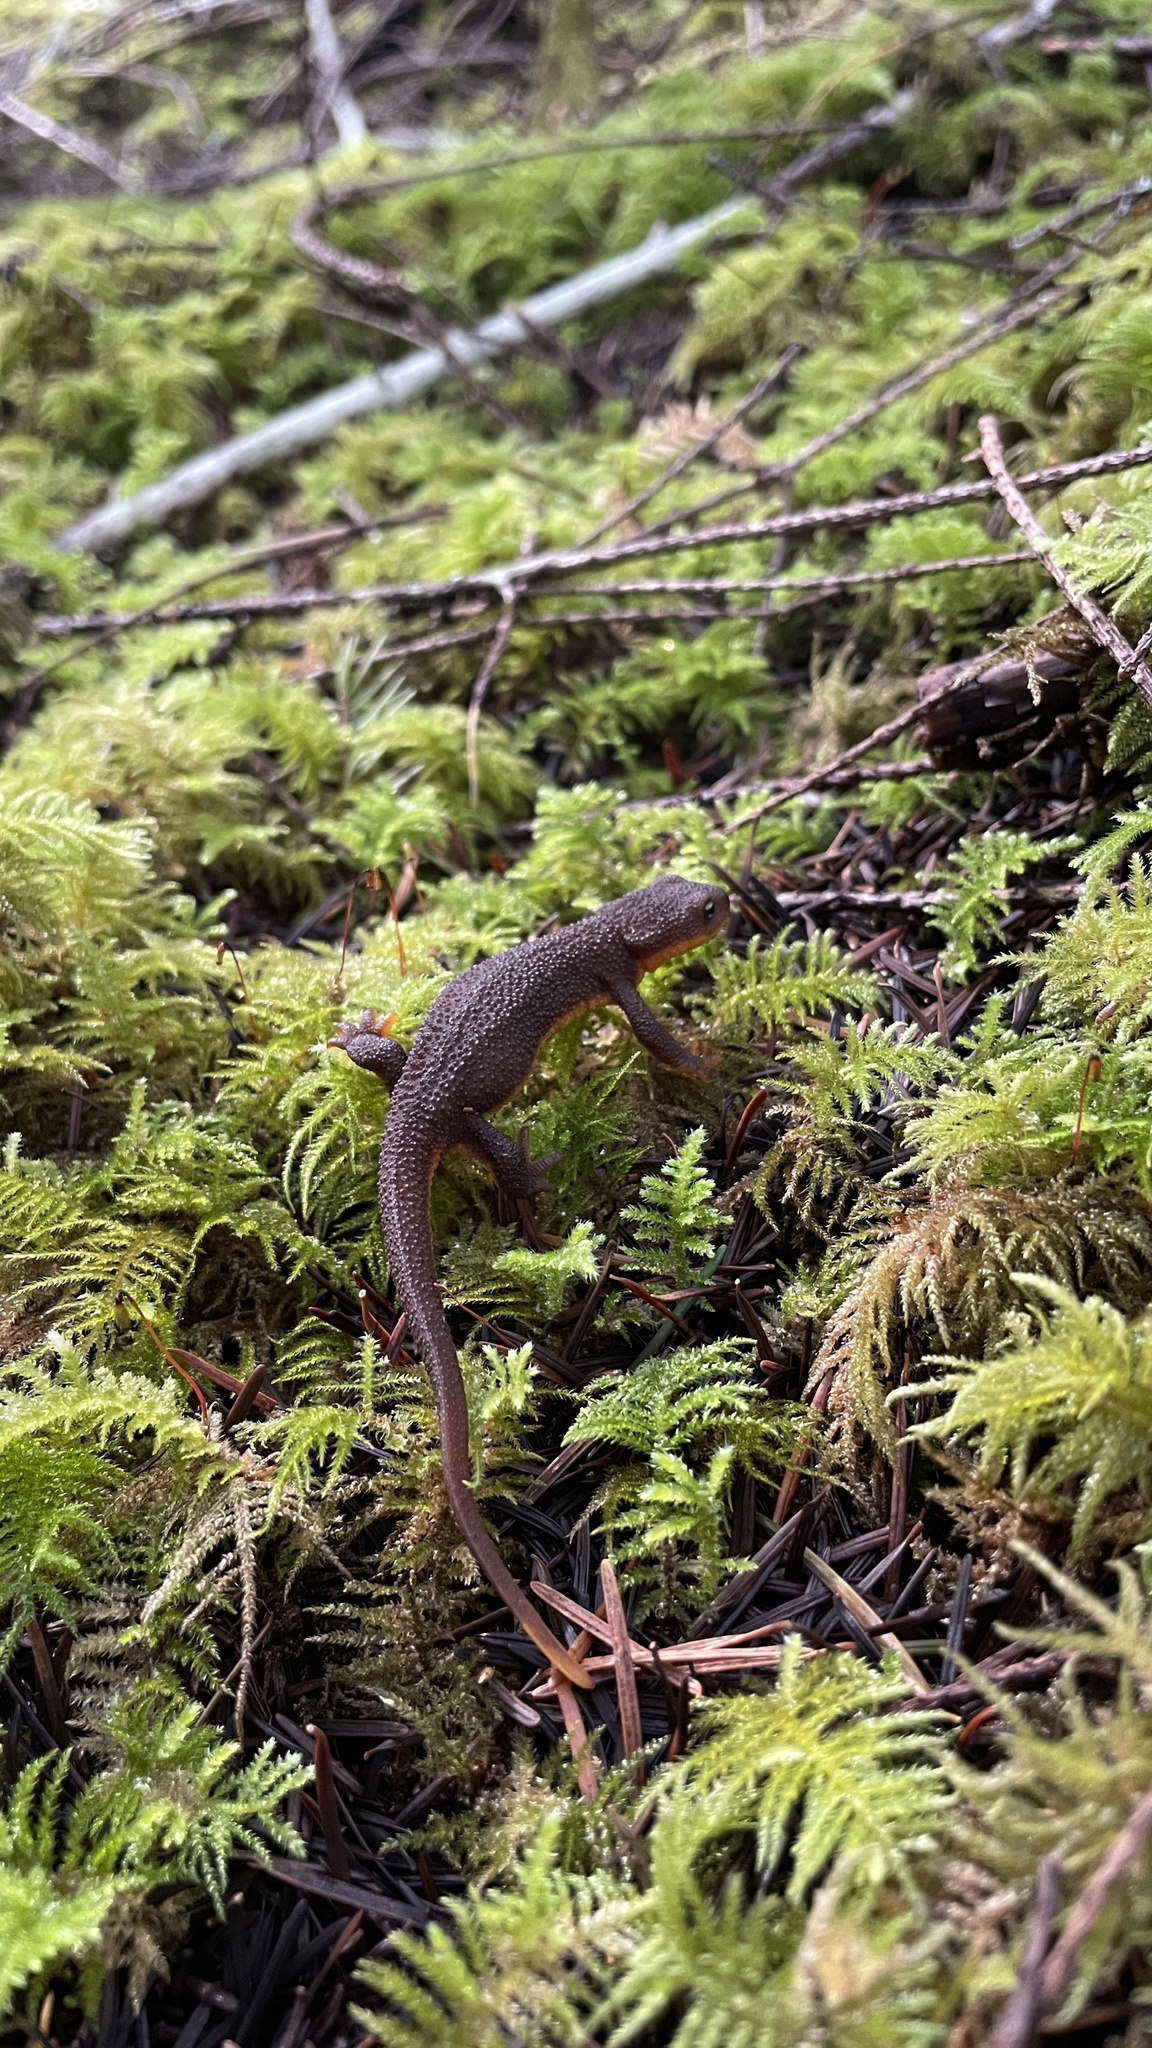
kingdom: Animalia
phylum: Chordata
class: Amphibia
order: Caudata
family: Salamandridae
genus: Taricha
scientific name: Taricha granulosa
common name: Roughskin newt
